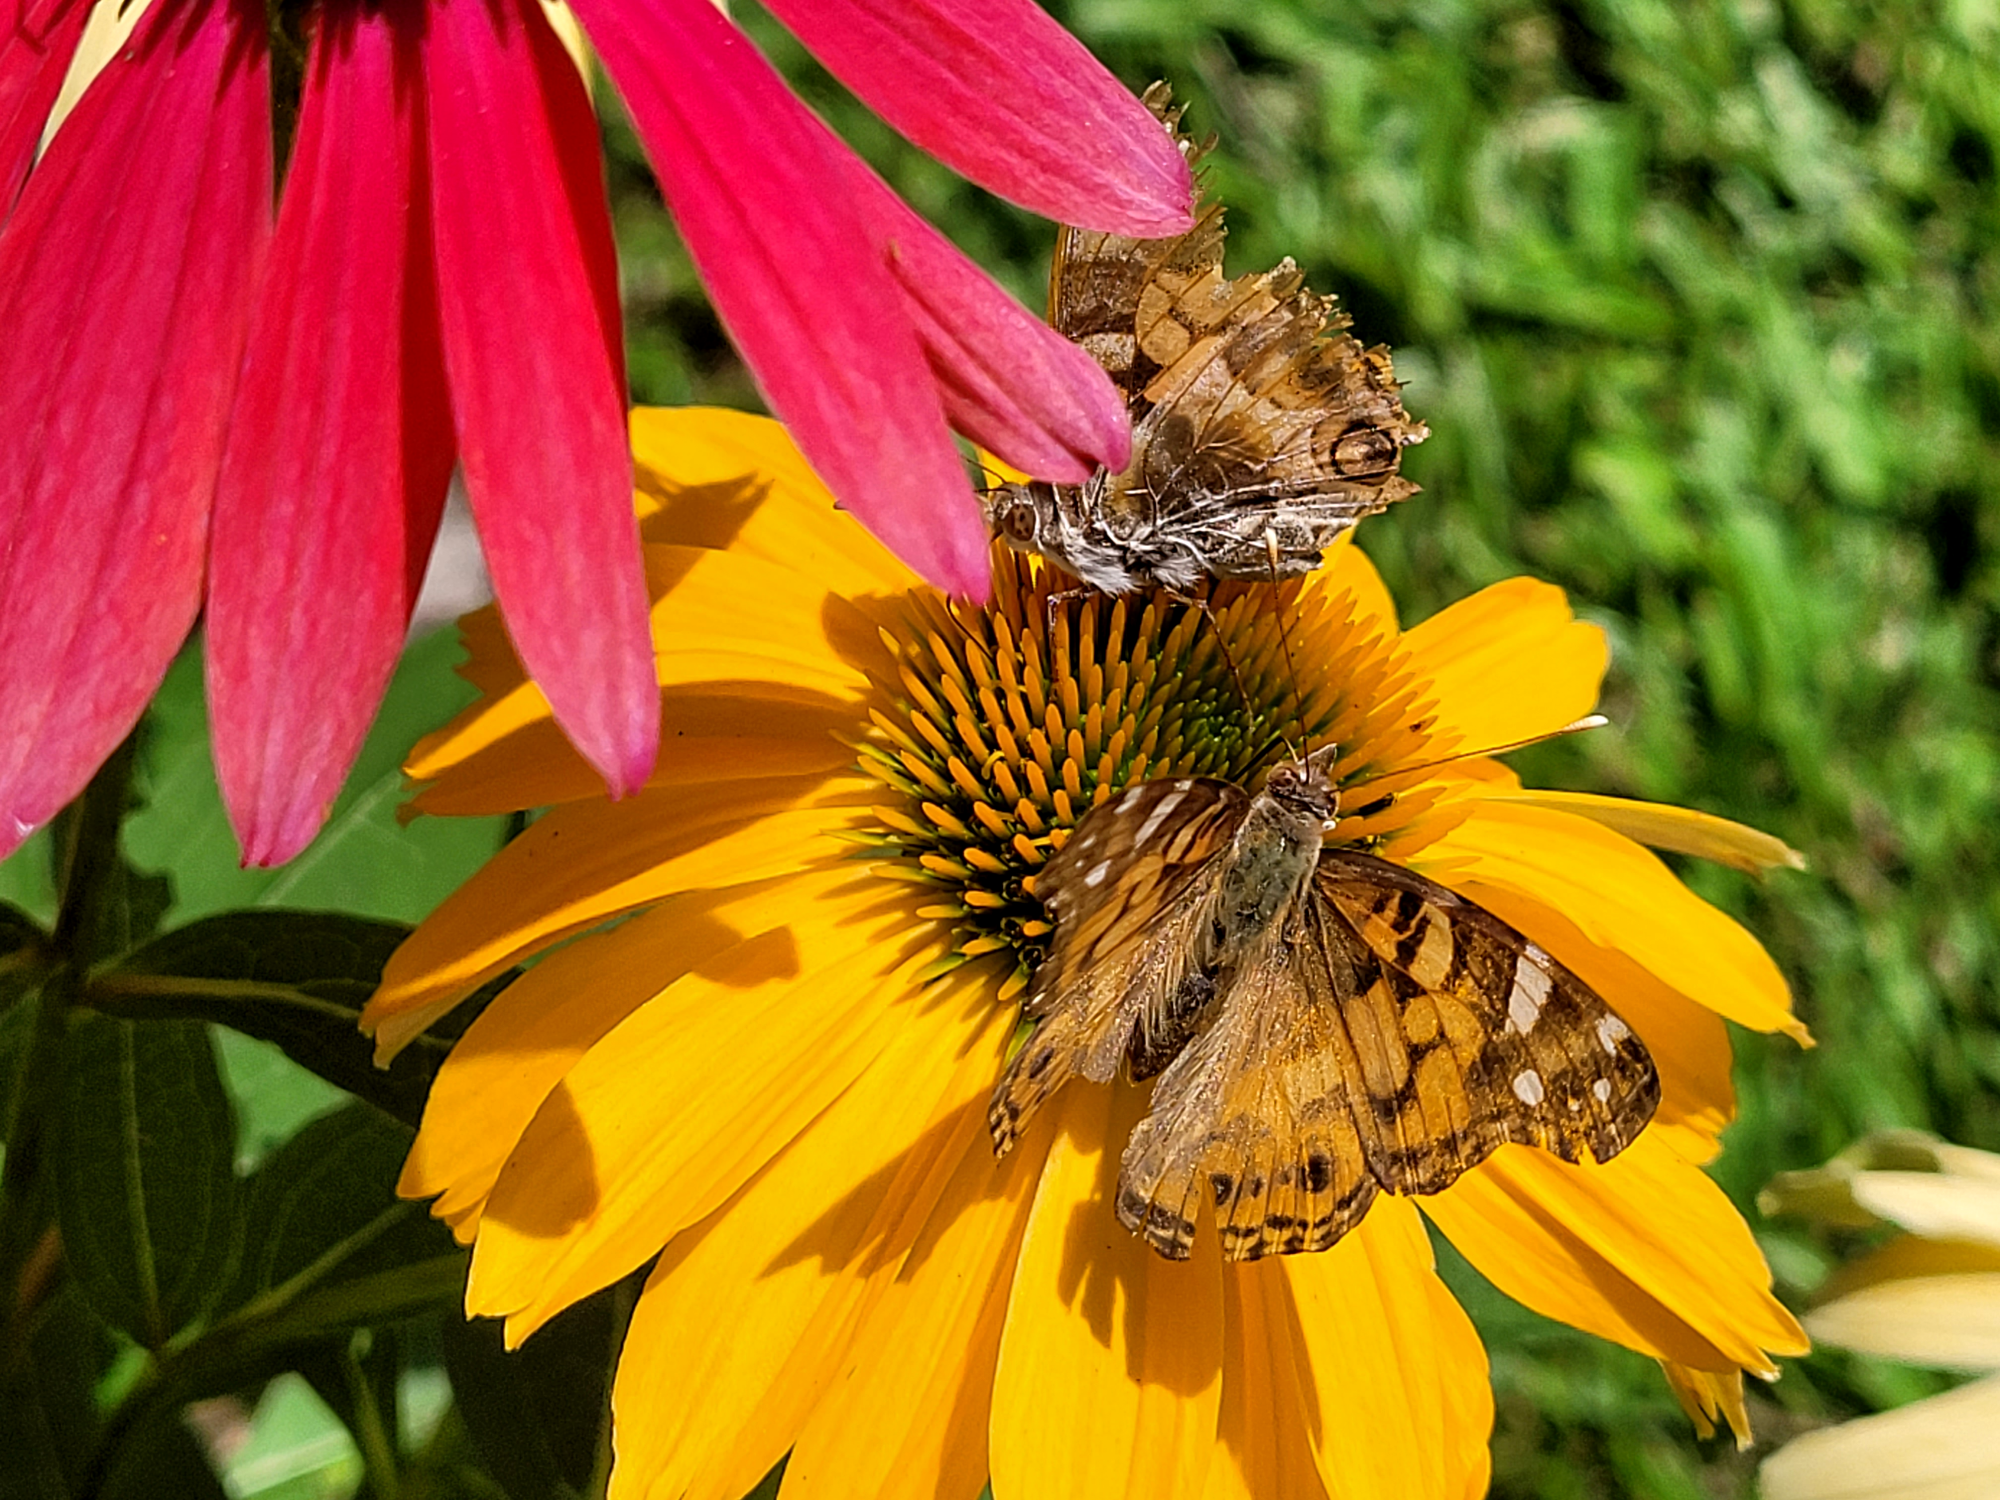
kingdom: Animalia
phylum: Arthropoda
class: Insecta
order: Lepidoptera
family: Nymphalidae
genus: Vanessa
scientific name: Vanessa virginiensis
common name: American lady
